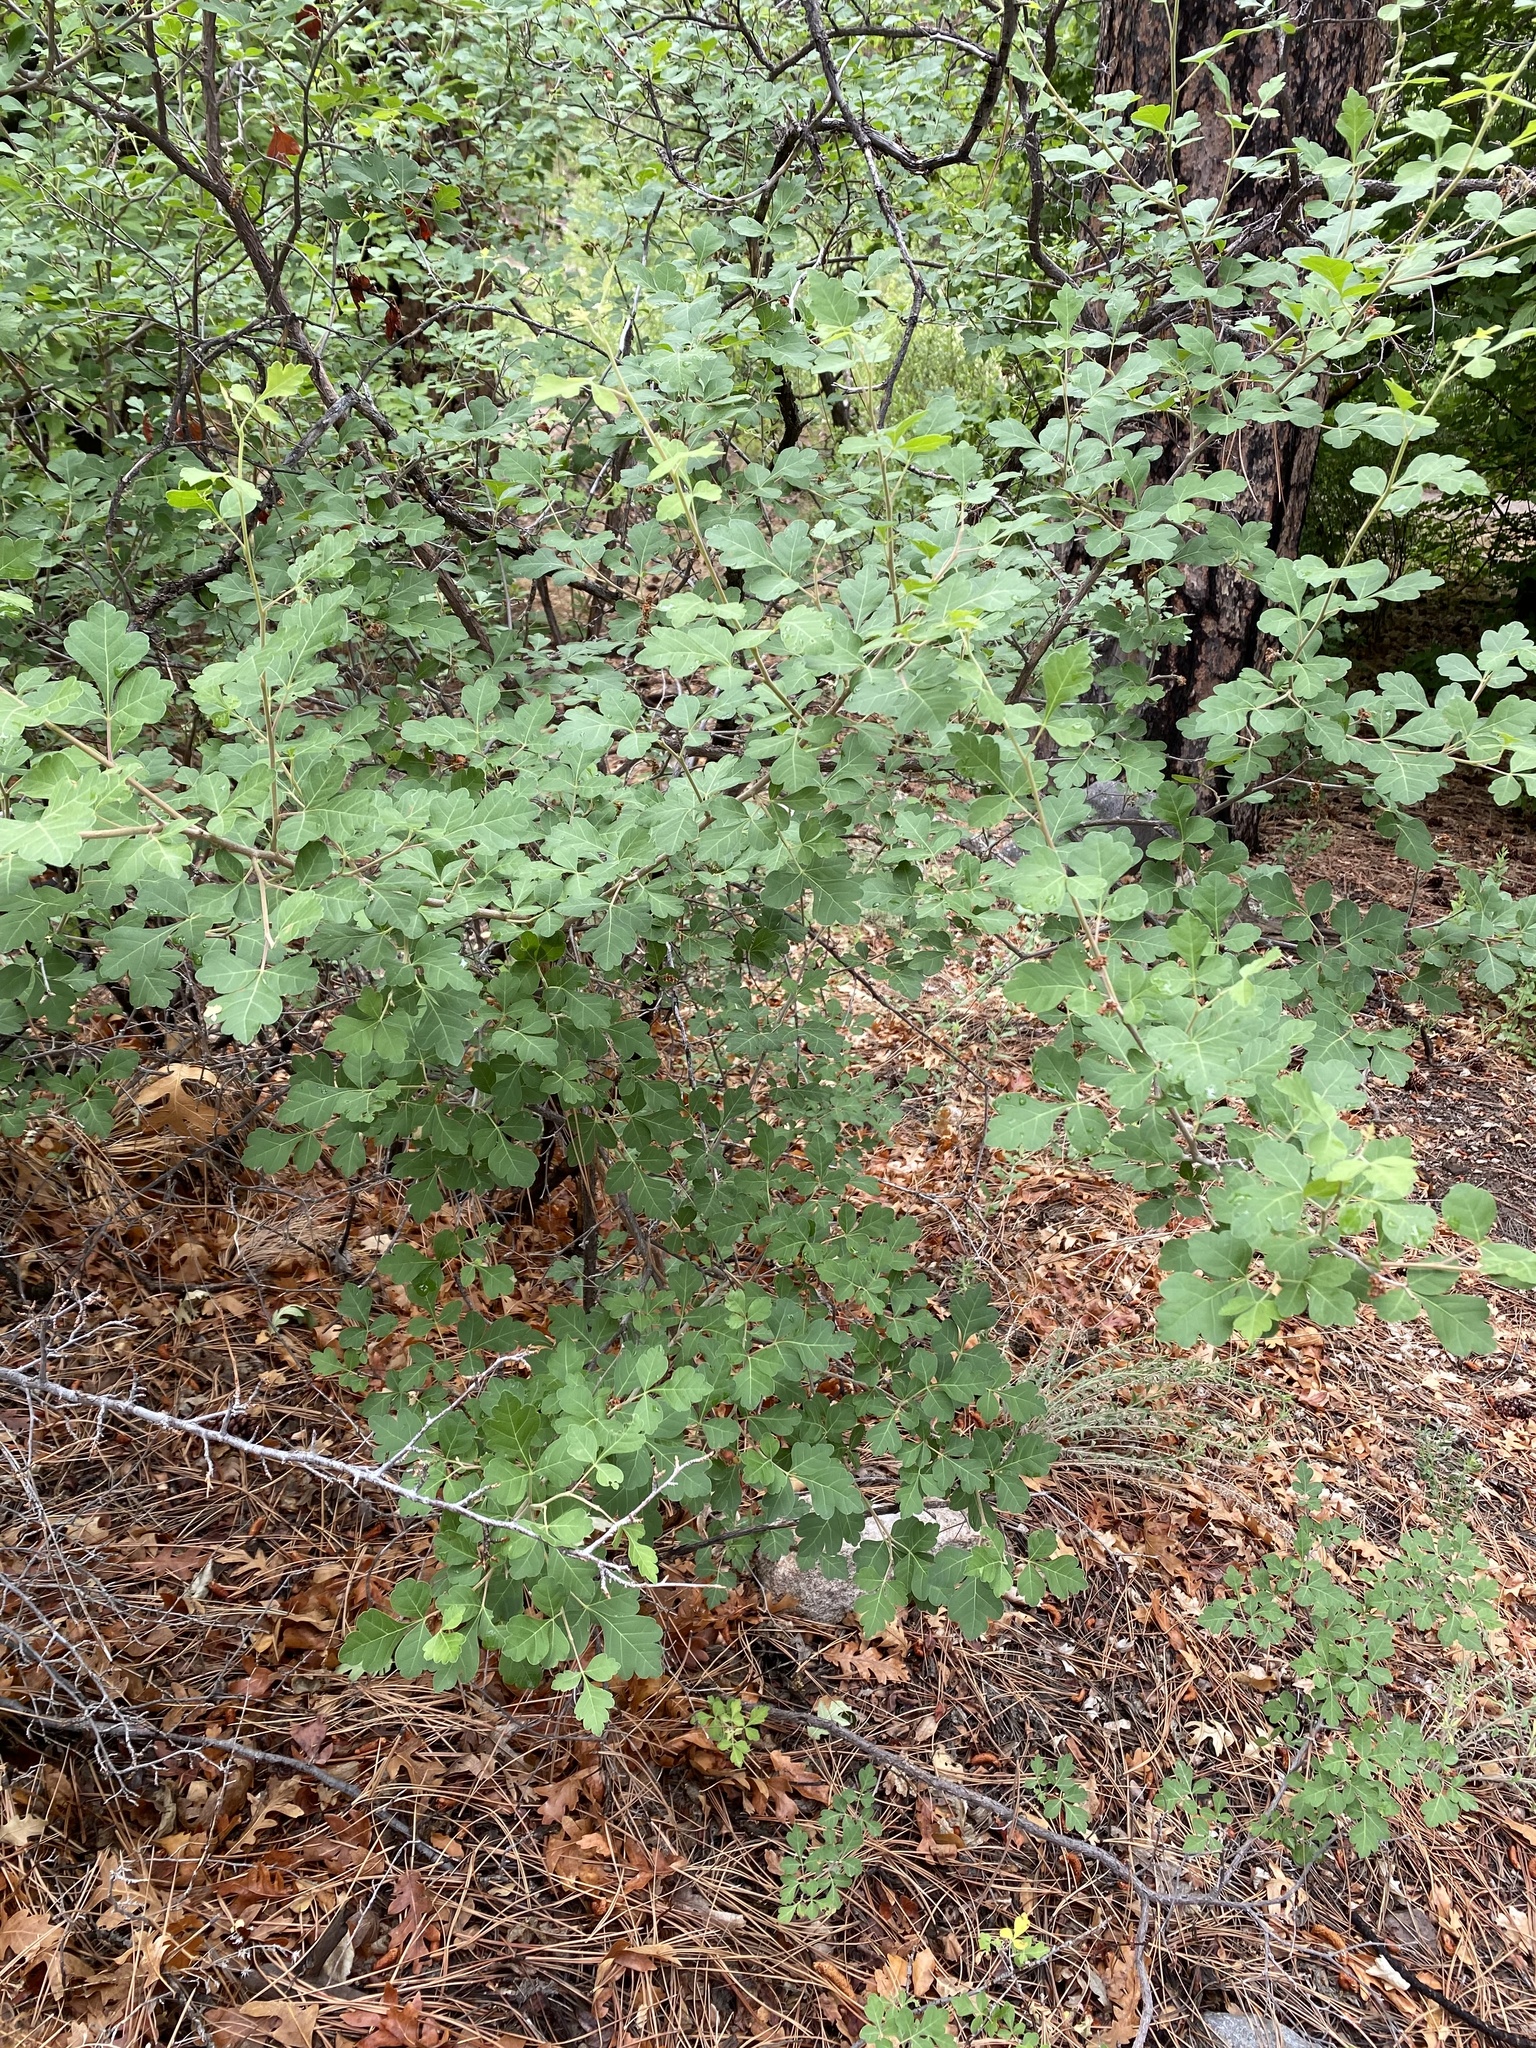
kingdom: Plantae
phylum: Tracheophyta
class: Magnoliopsida
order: Sapindales
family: Anacardiaceae
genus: Rhus
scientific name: Rhus trilobata
